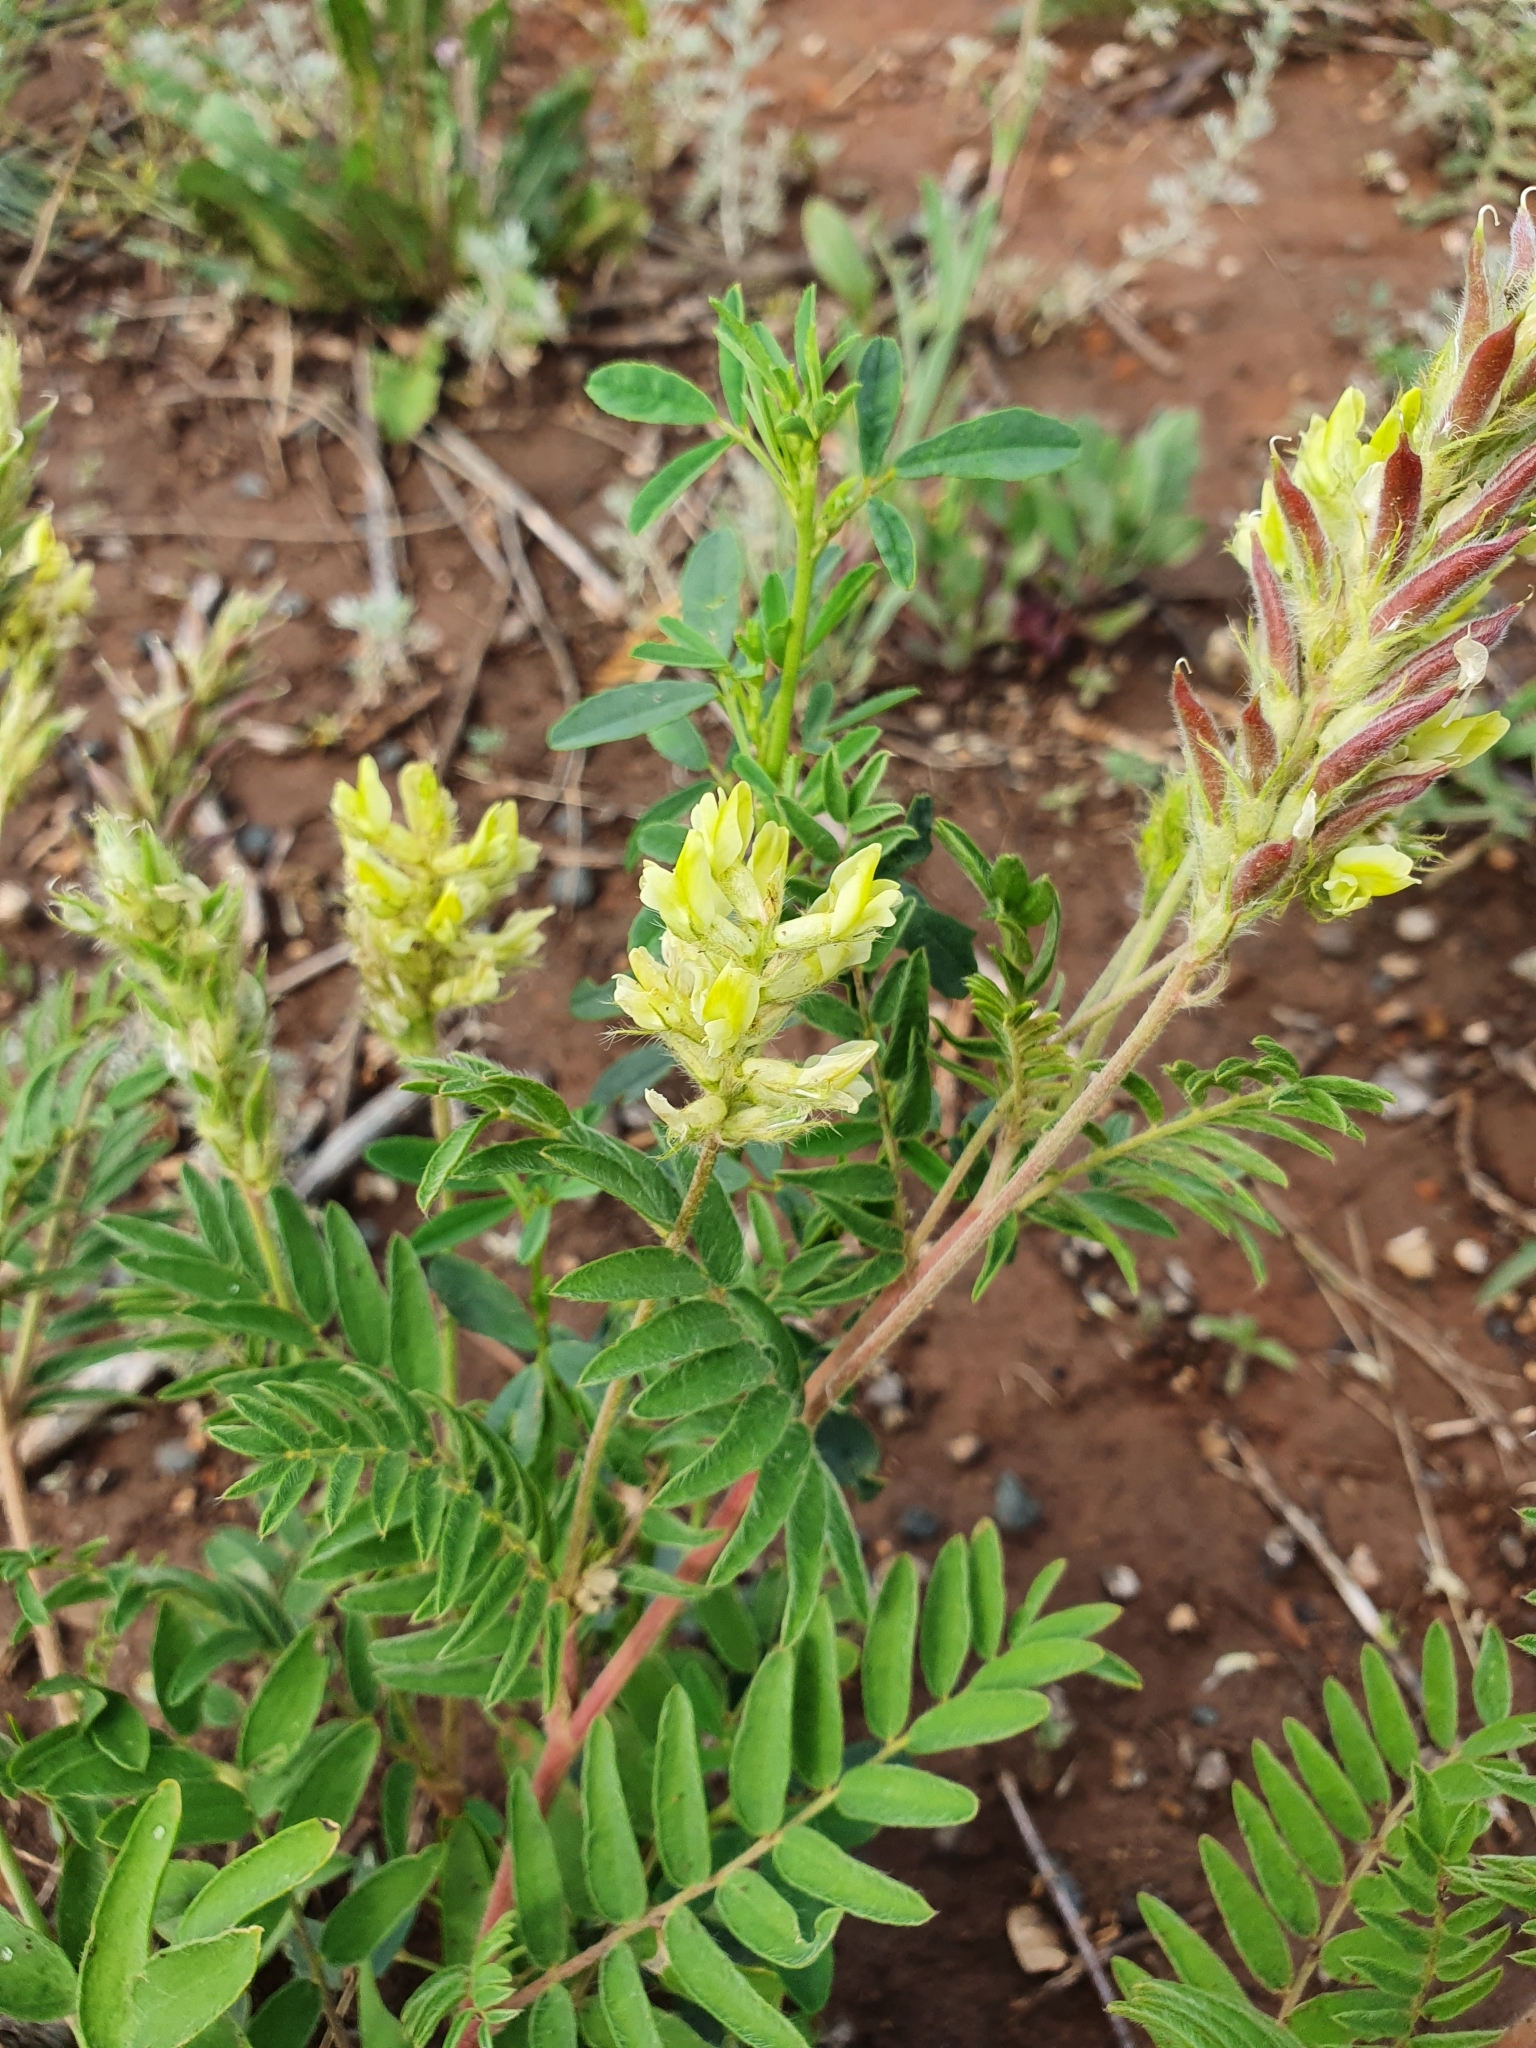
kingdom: Plantae
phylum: Tracheophyta
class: Magnoliopsida
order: Fabales
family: Fabaceae
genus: Oxytropis
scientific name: Oxytropis pilosa
